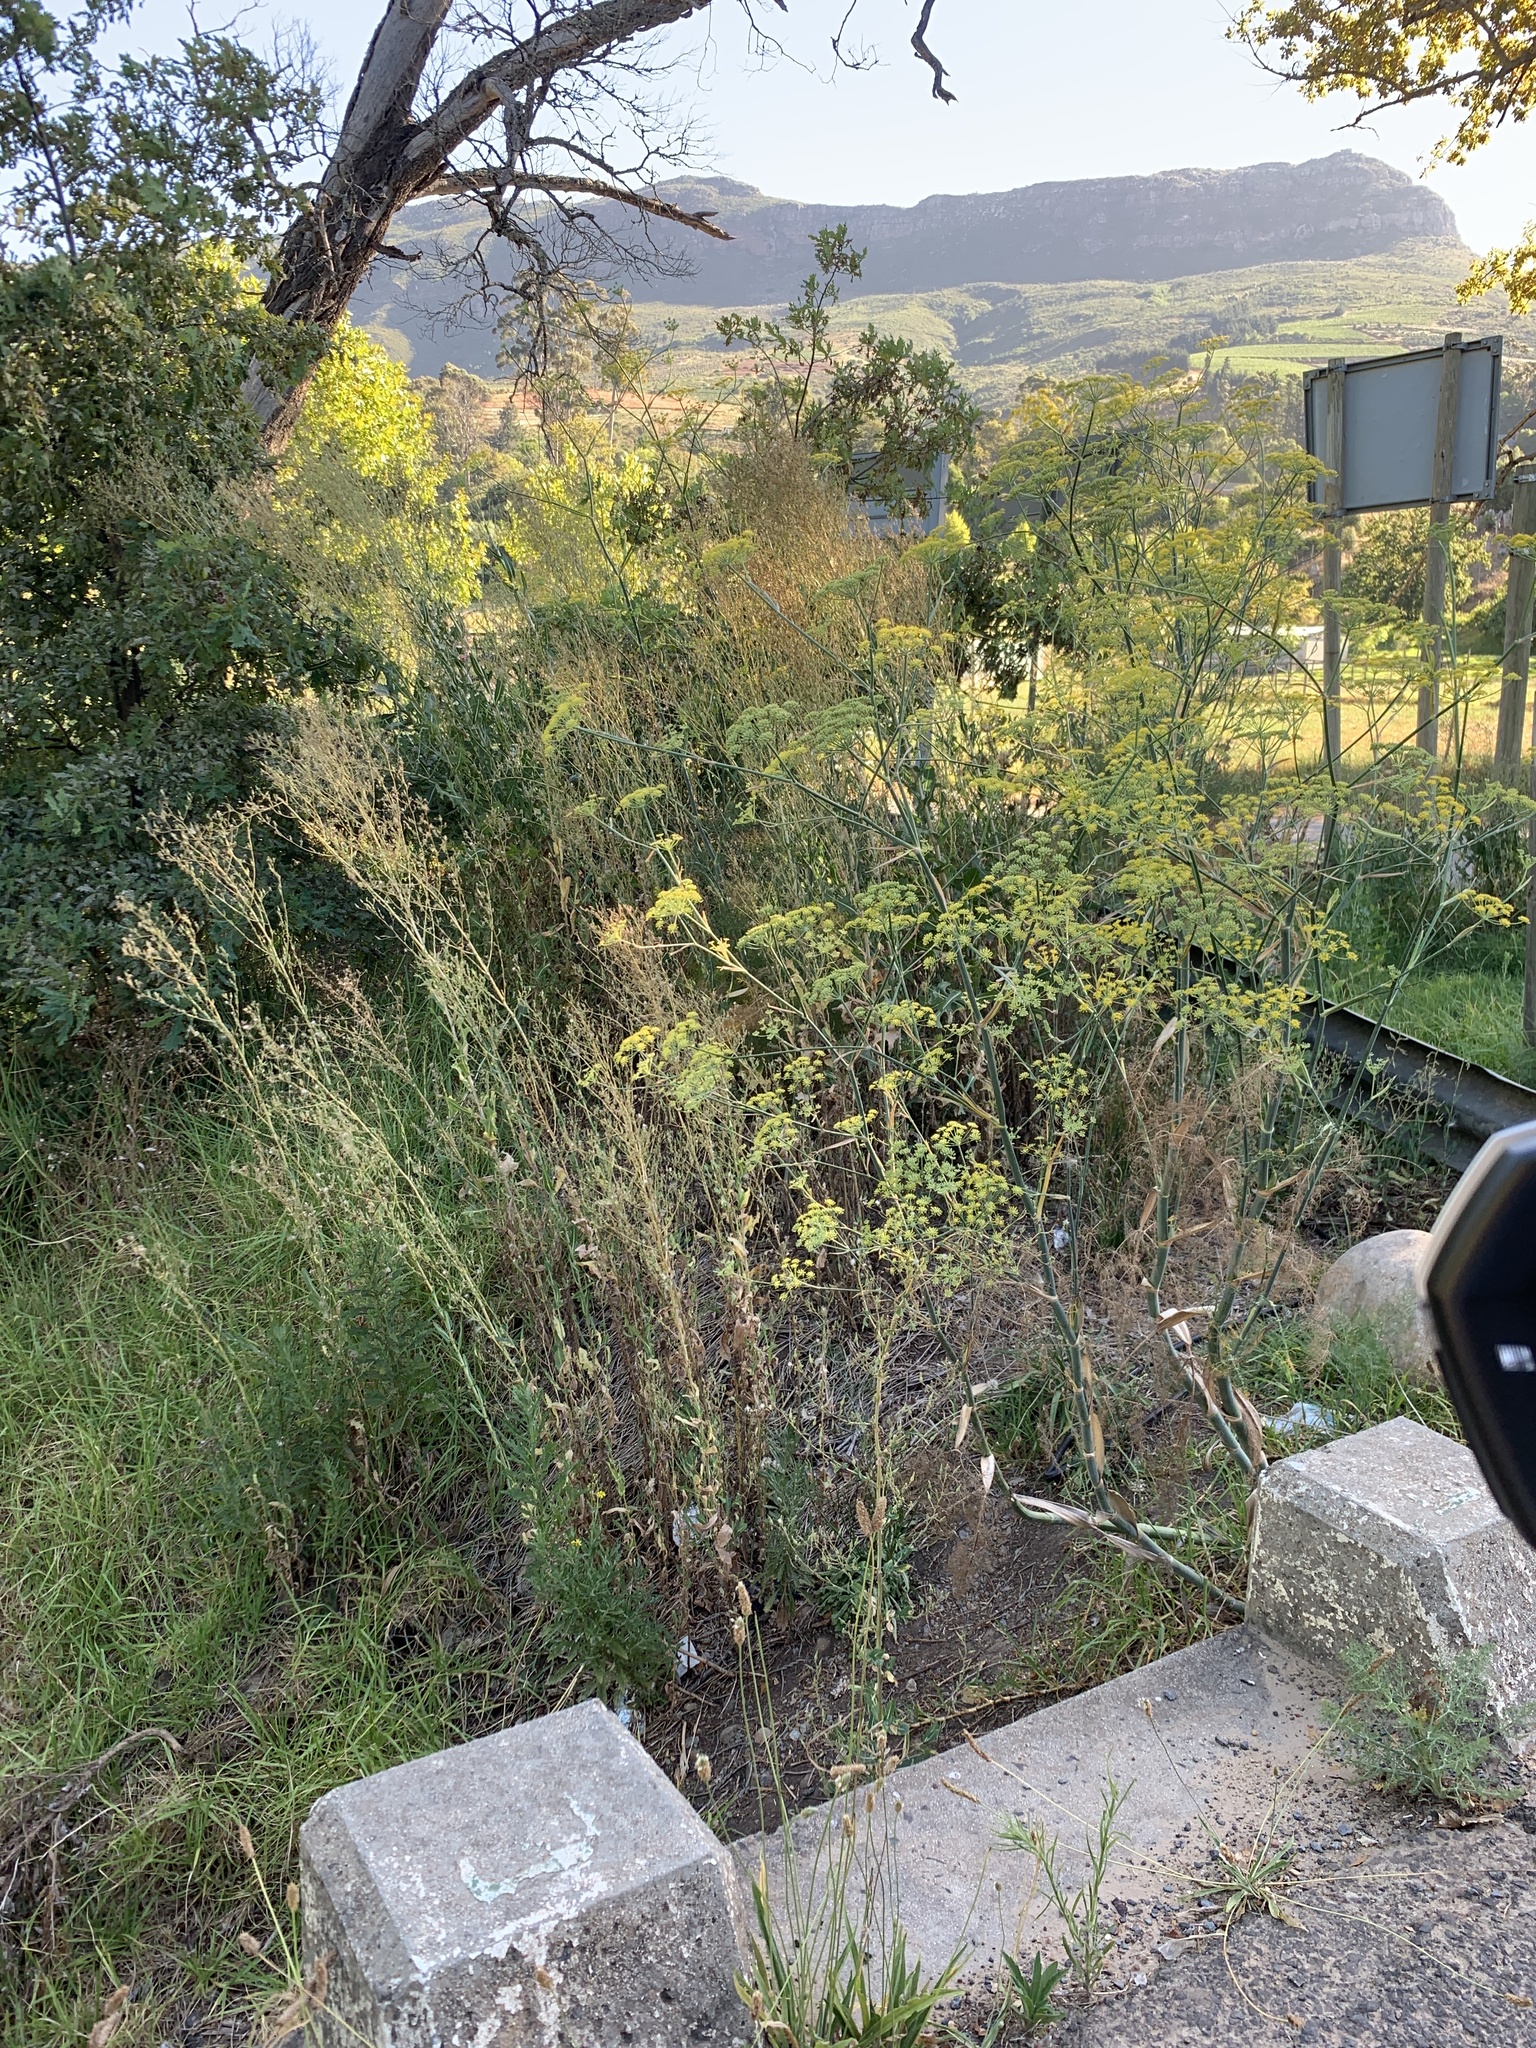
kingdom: Plantae
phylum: Tracheophyta
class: Magnoliopsida
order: Apiales
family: Apiaceae
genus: Foeniculum
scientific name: Foeniculum vulgare
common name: Fennel
